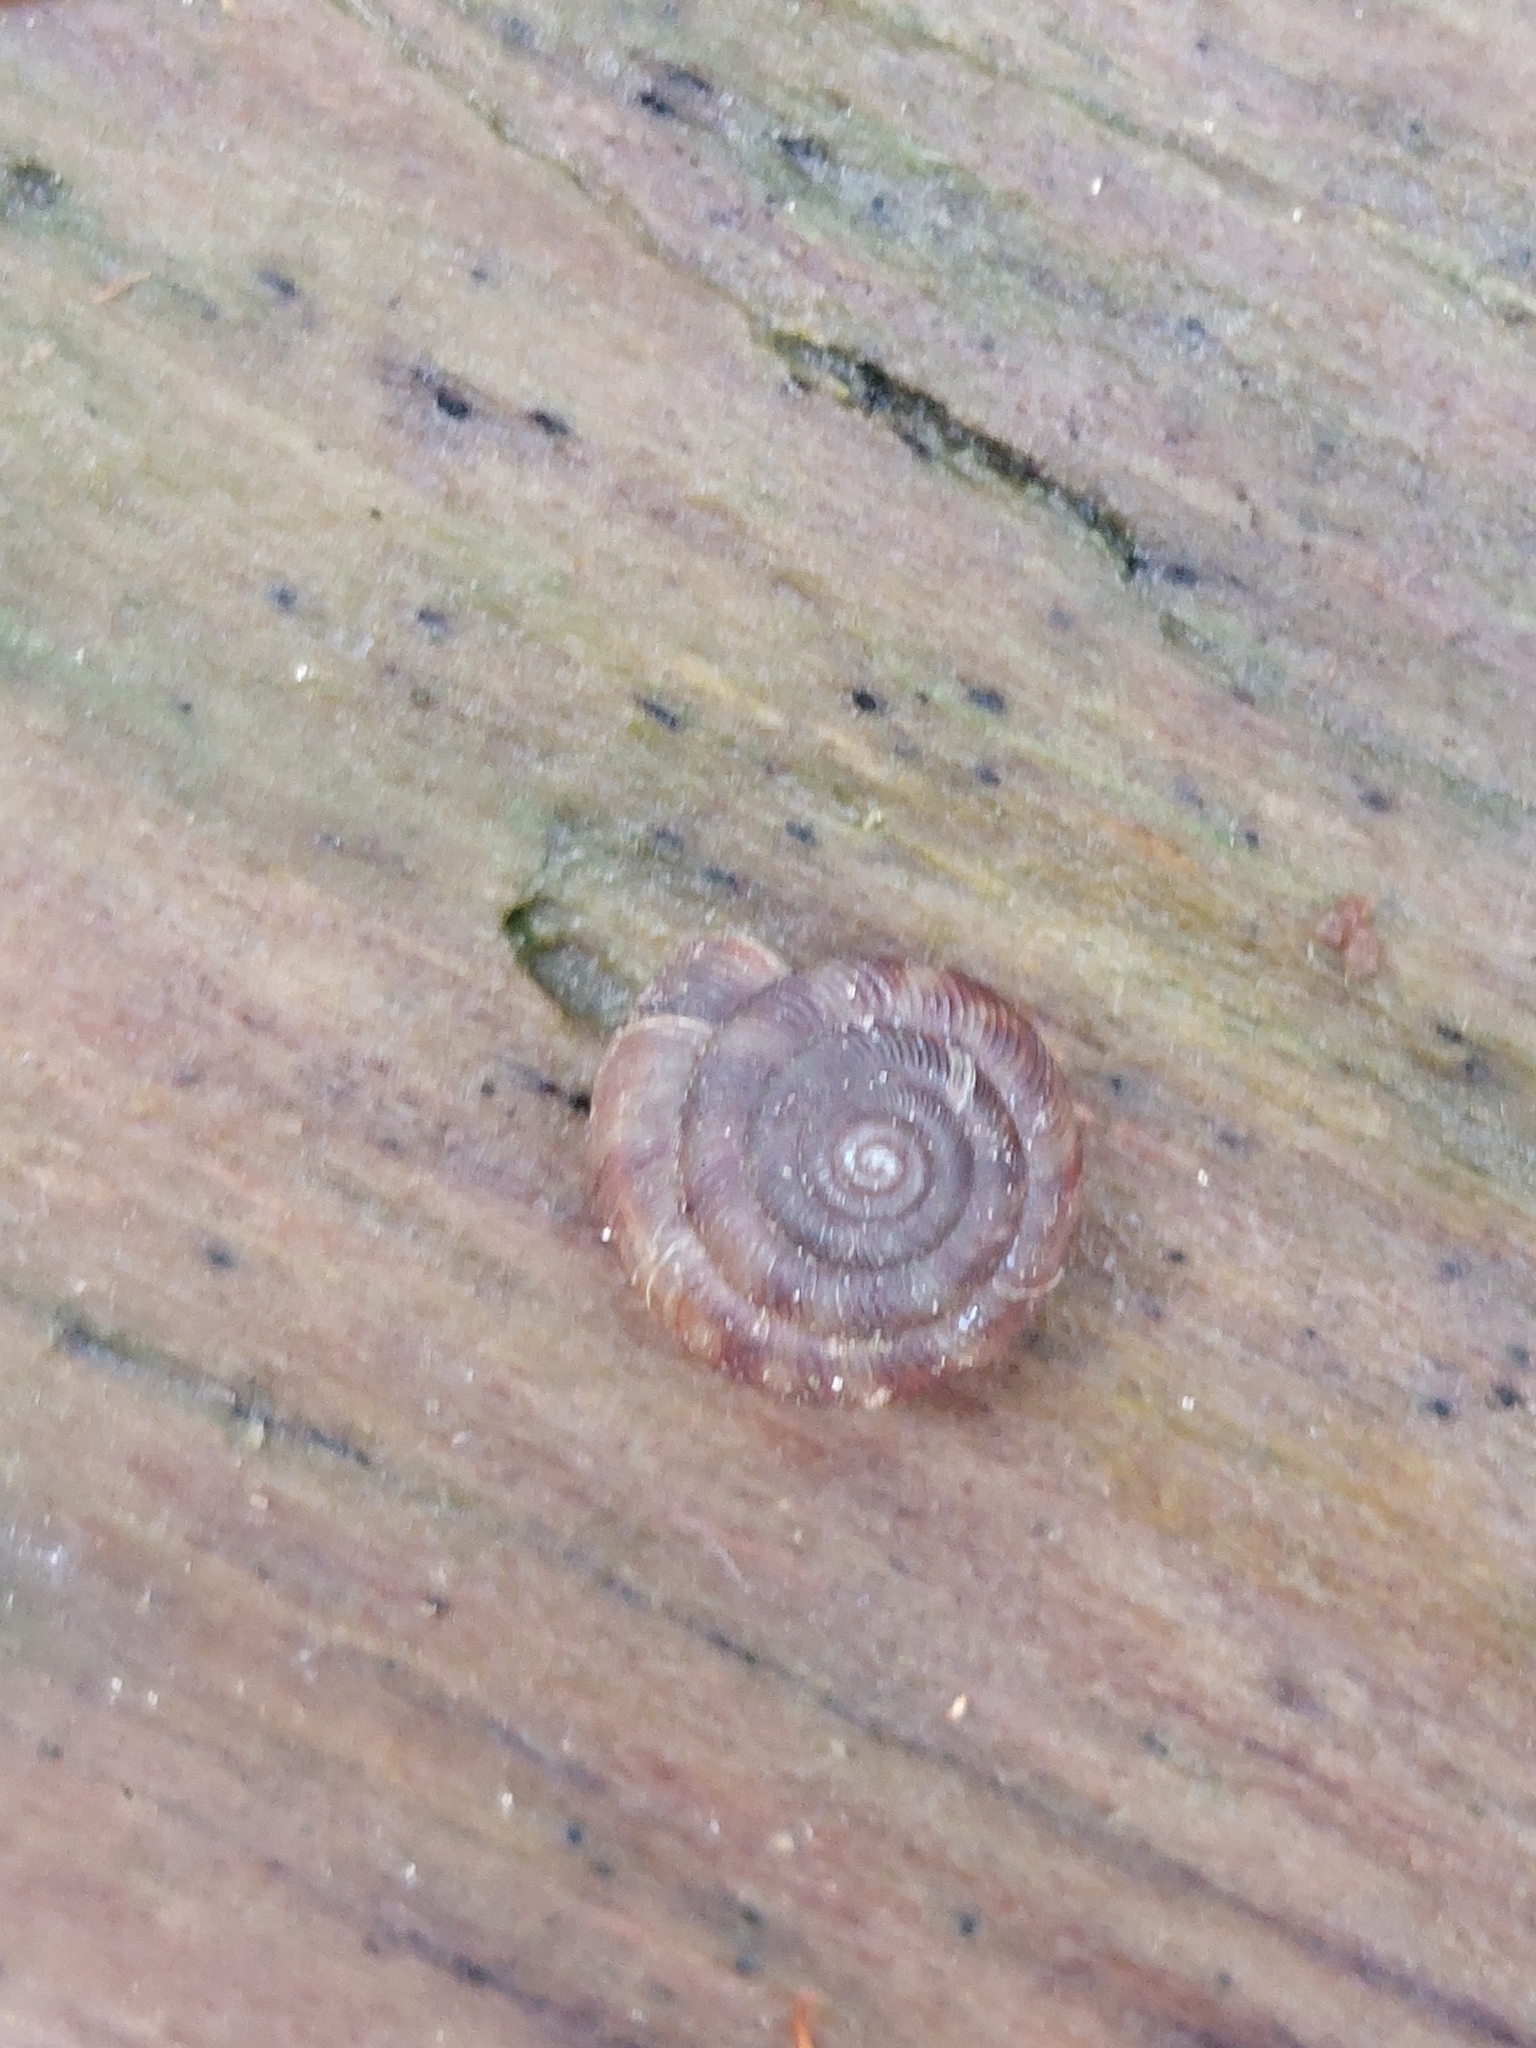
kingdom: Animalia
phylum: Mollusca
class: Gastropoda
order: Stylommatophora
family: Discidae
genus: Discus
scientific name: Discus rotundatus
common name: Rounded snail
